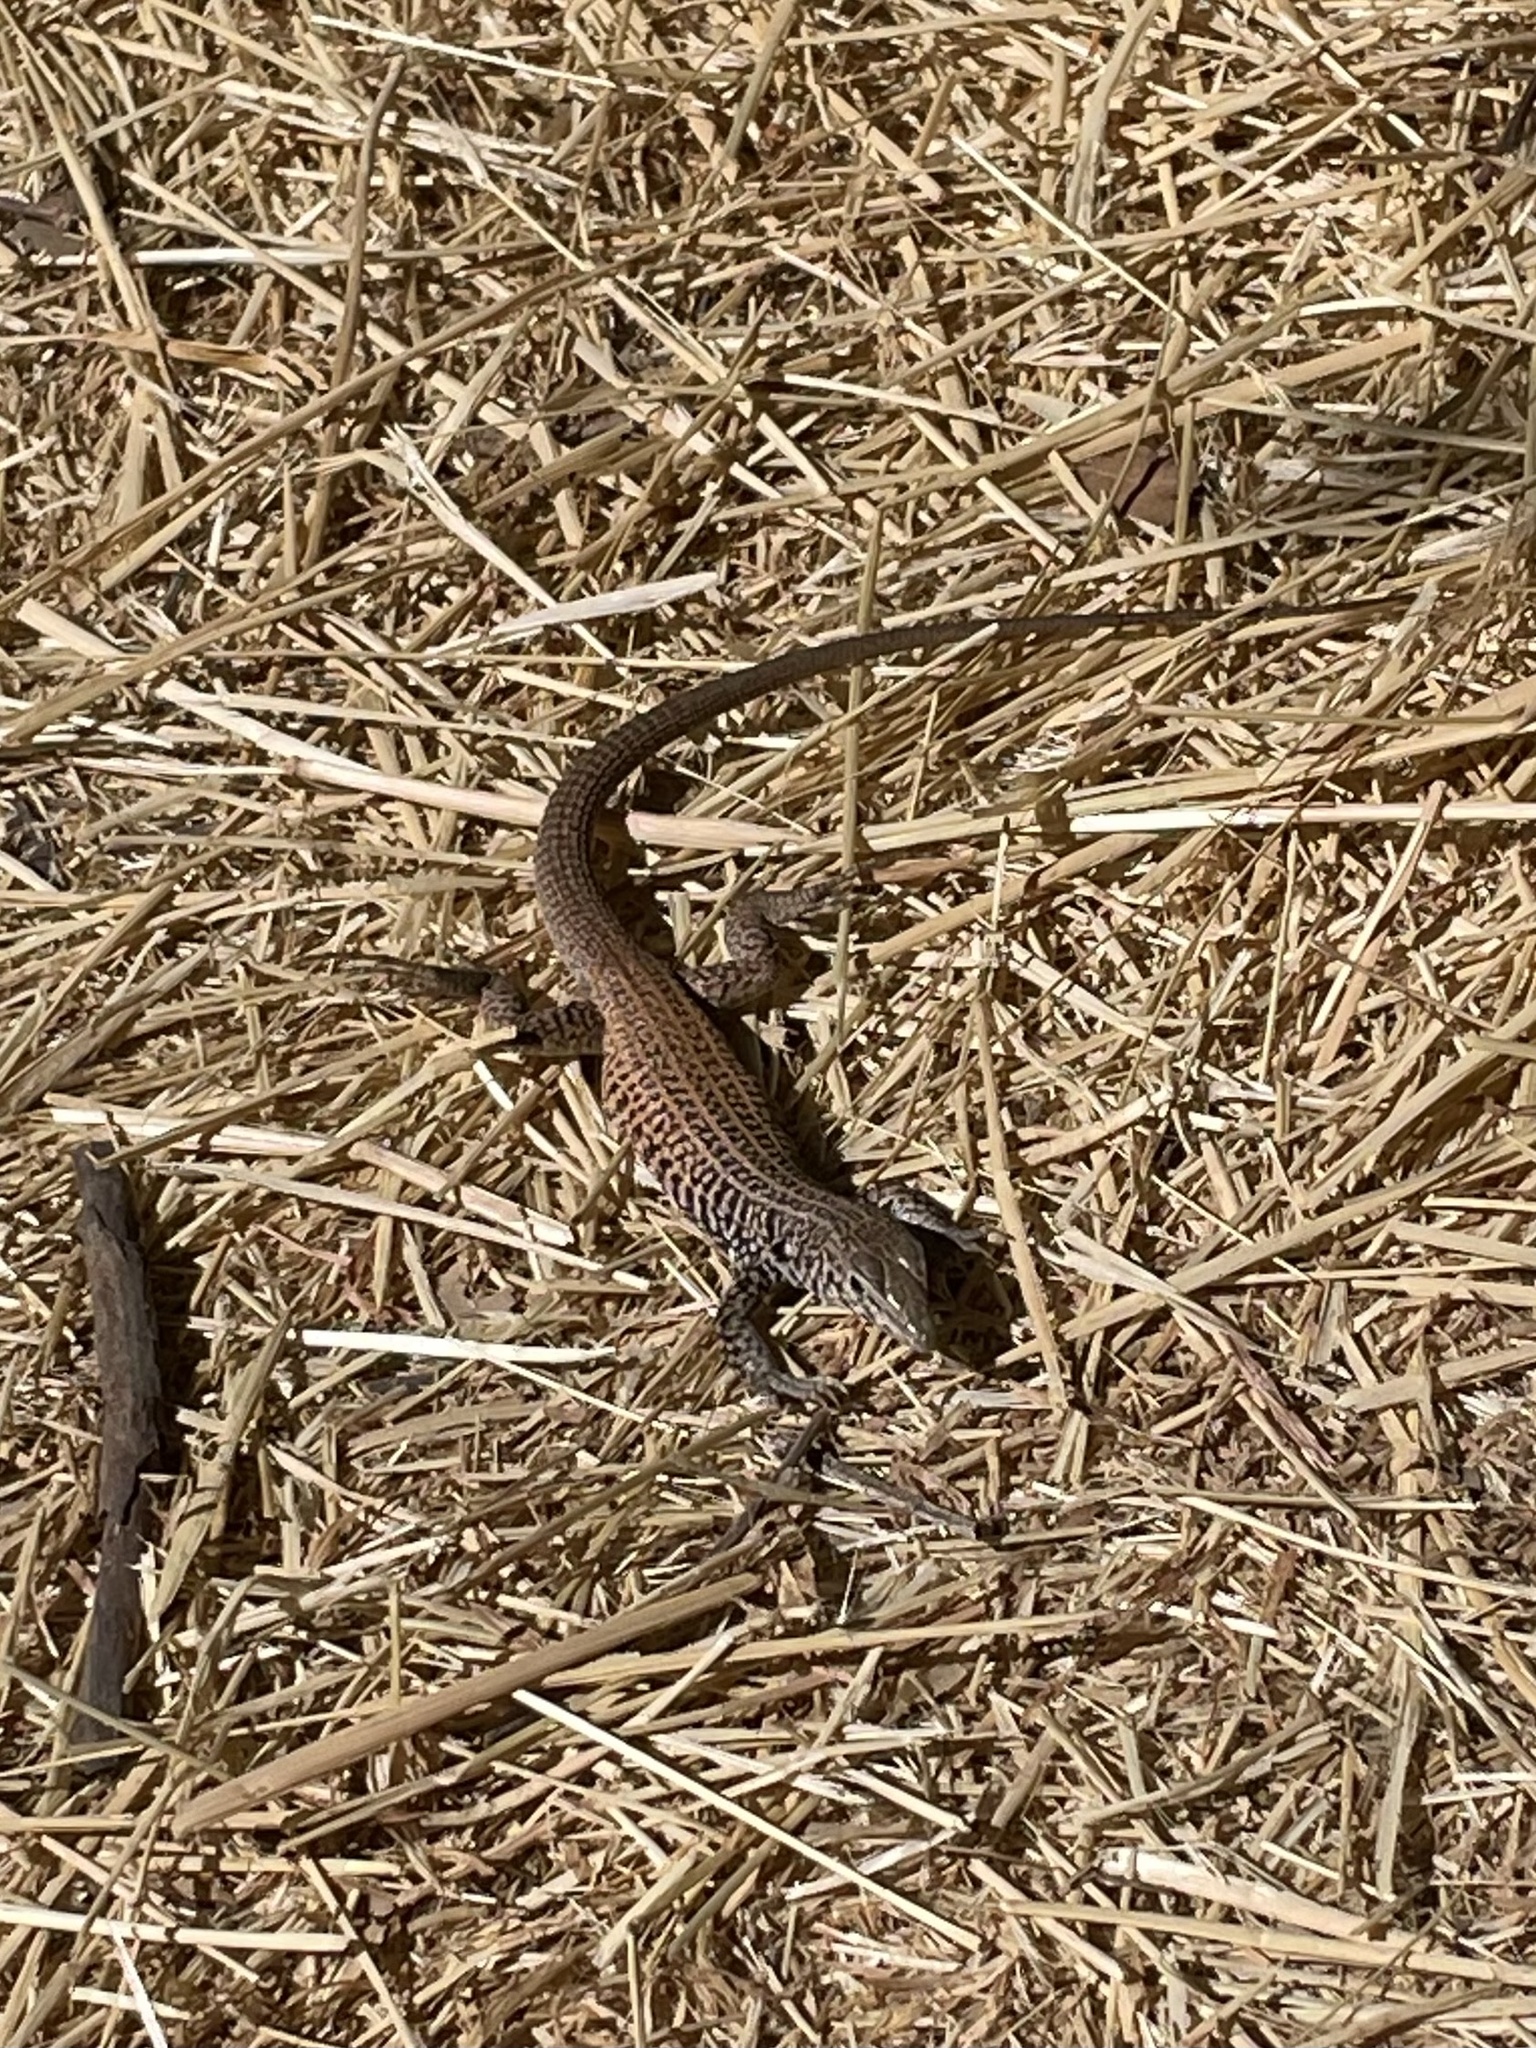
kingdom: Animalia
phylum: Chordata
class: Squamata
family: Teiidae
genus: Aspidoscelis
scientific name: Aspidoscelis tigris
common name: Tiger whiptail
